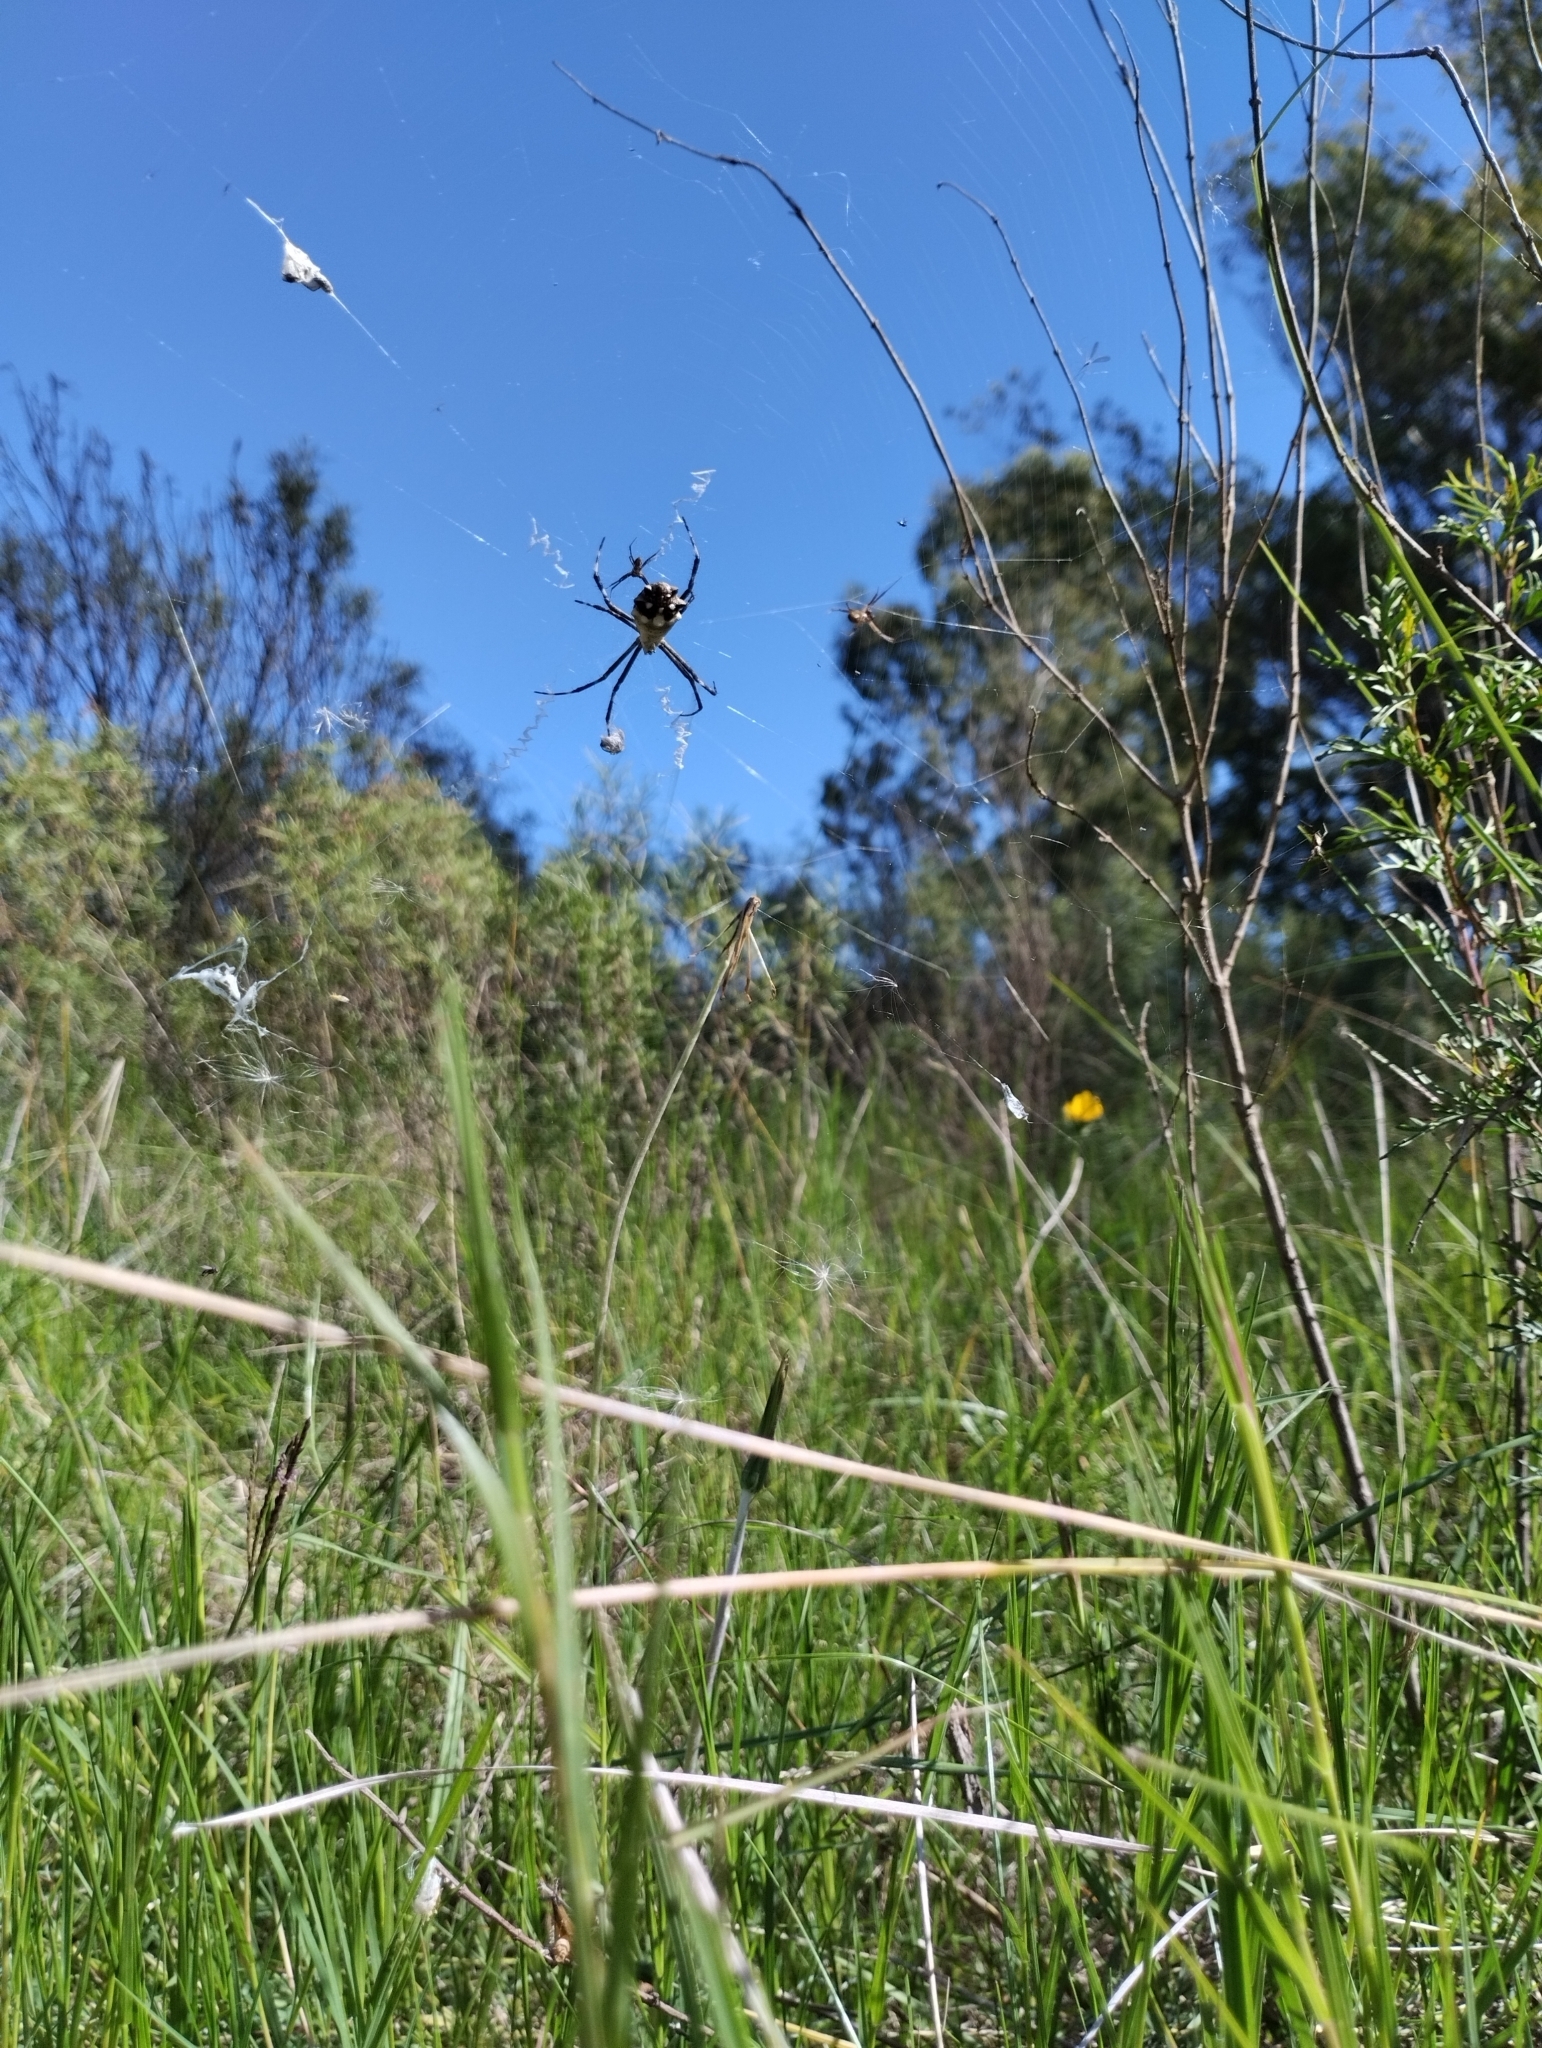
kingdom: Animalia
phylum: Arthropoda
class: Arachnida
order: Araneae
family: Araneidae
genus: Argiope
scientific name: Argiope argentata
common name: Orb weavers
